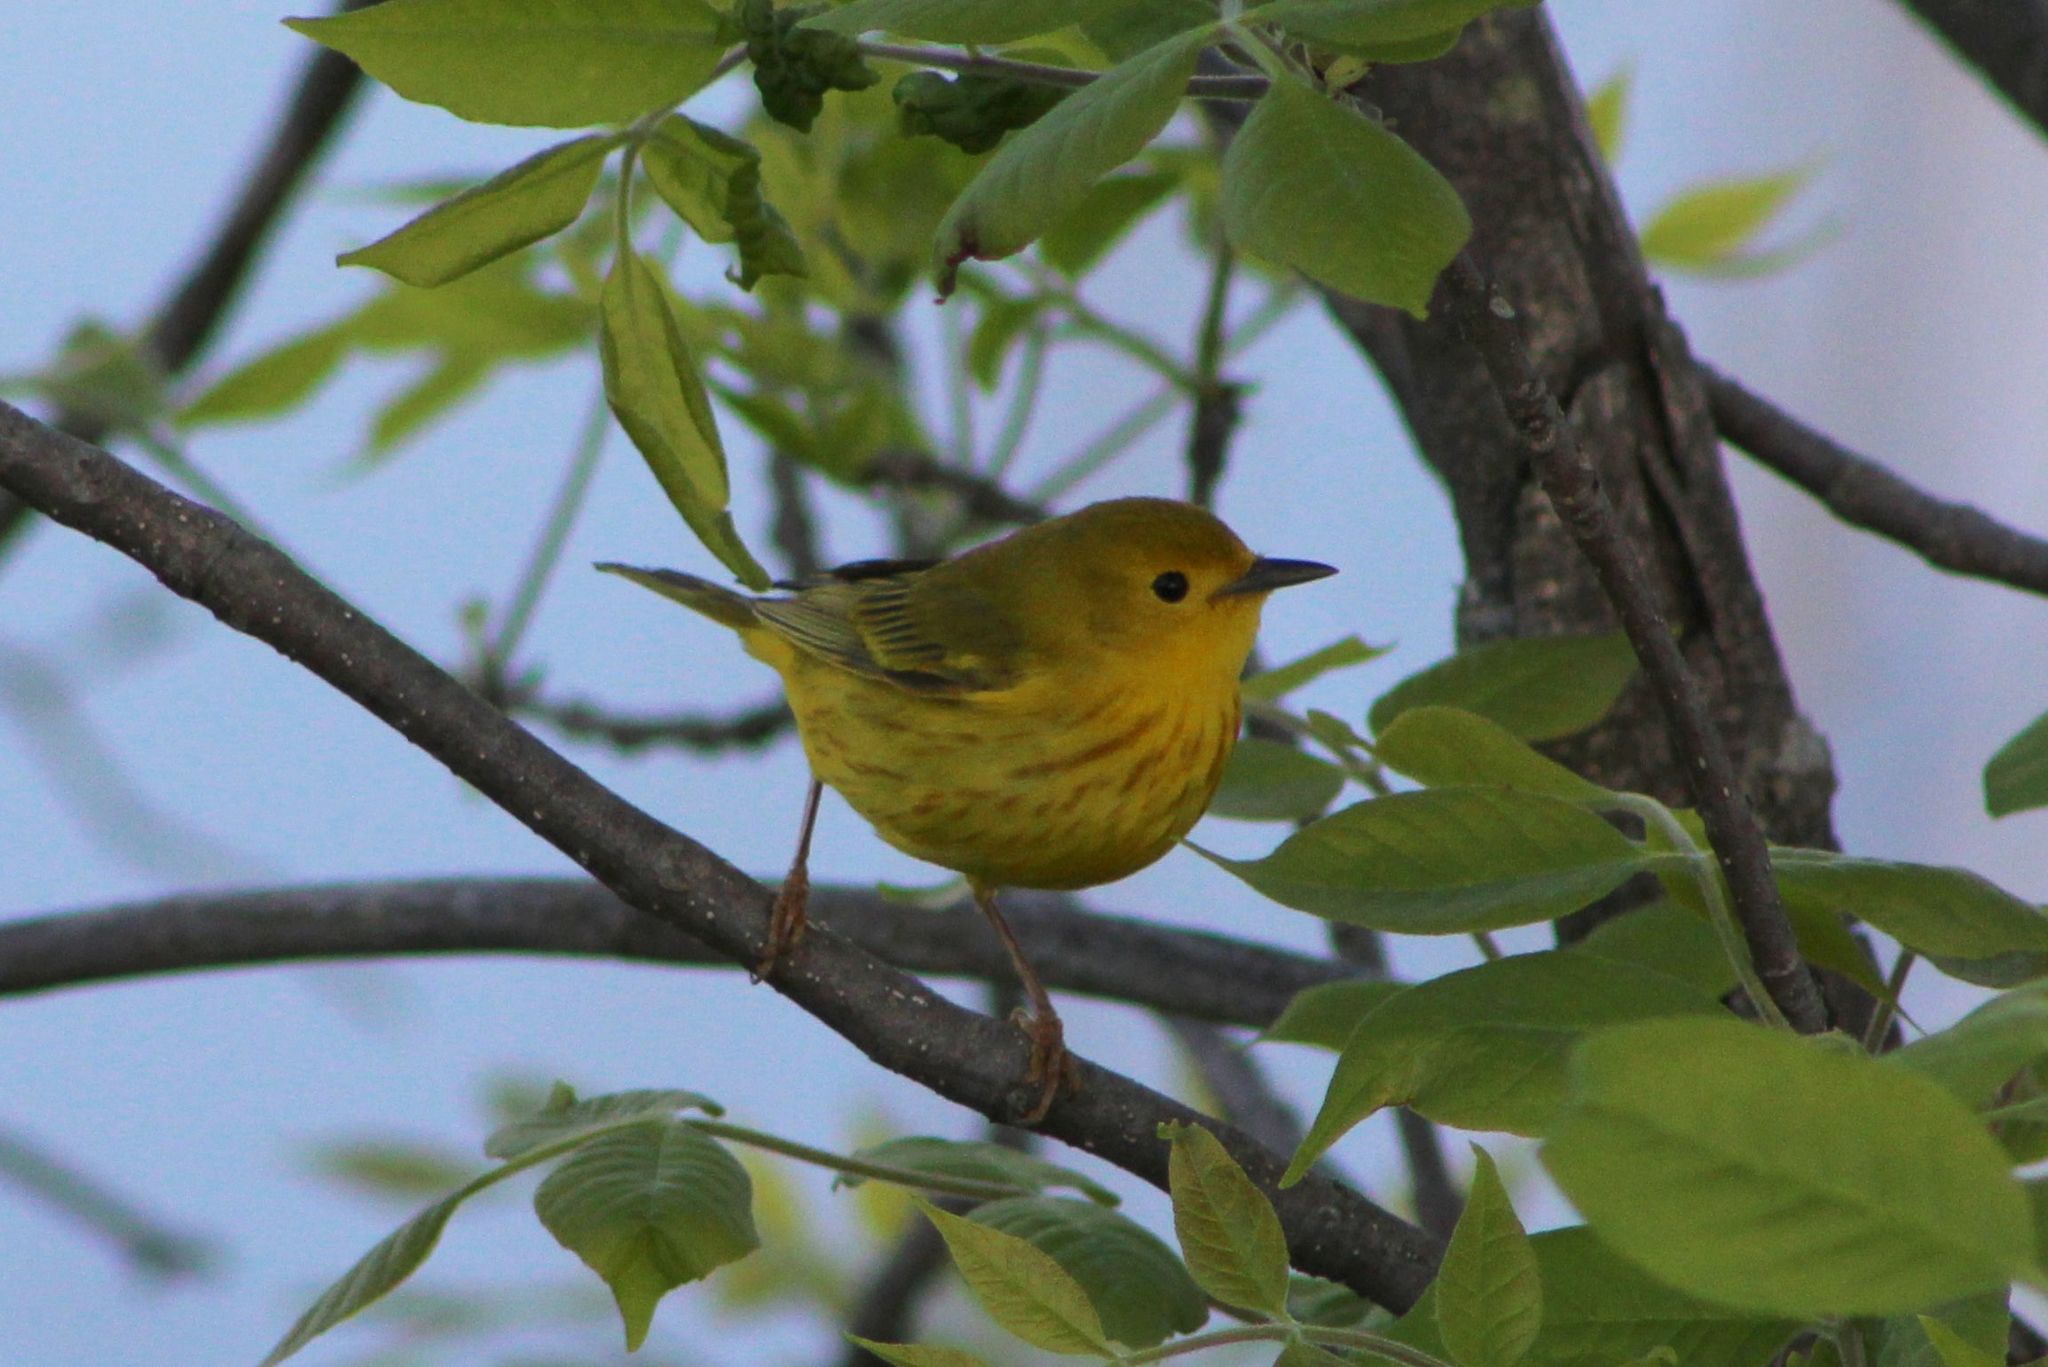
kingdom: Animalia
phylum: Chordata
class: Aves
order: Passeriformes
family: Parulidae
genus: Setophaga
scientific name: Setophaga petechia
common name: Yellow warbler
